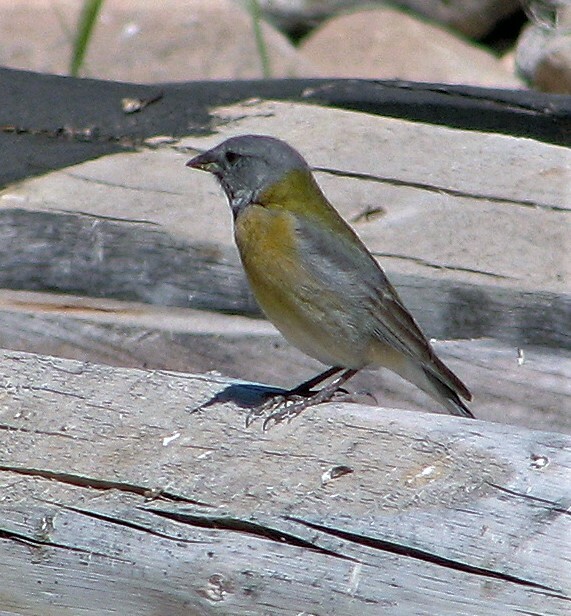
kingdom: Animalia
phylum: Chordata
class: Aves
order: Passeriformes
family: Thraupidae
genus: Phrygilus
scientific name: Phrygilus gayi
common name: Grey-hooded sierra finch
